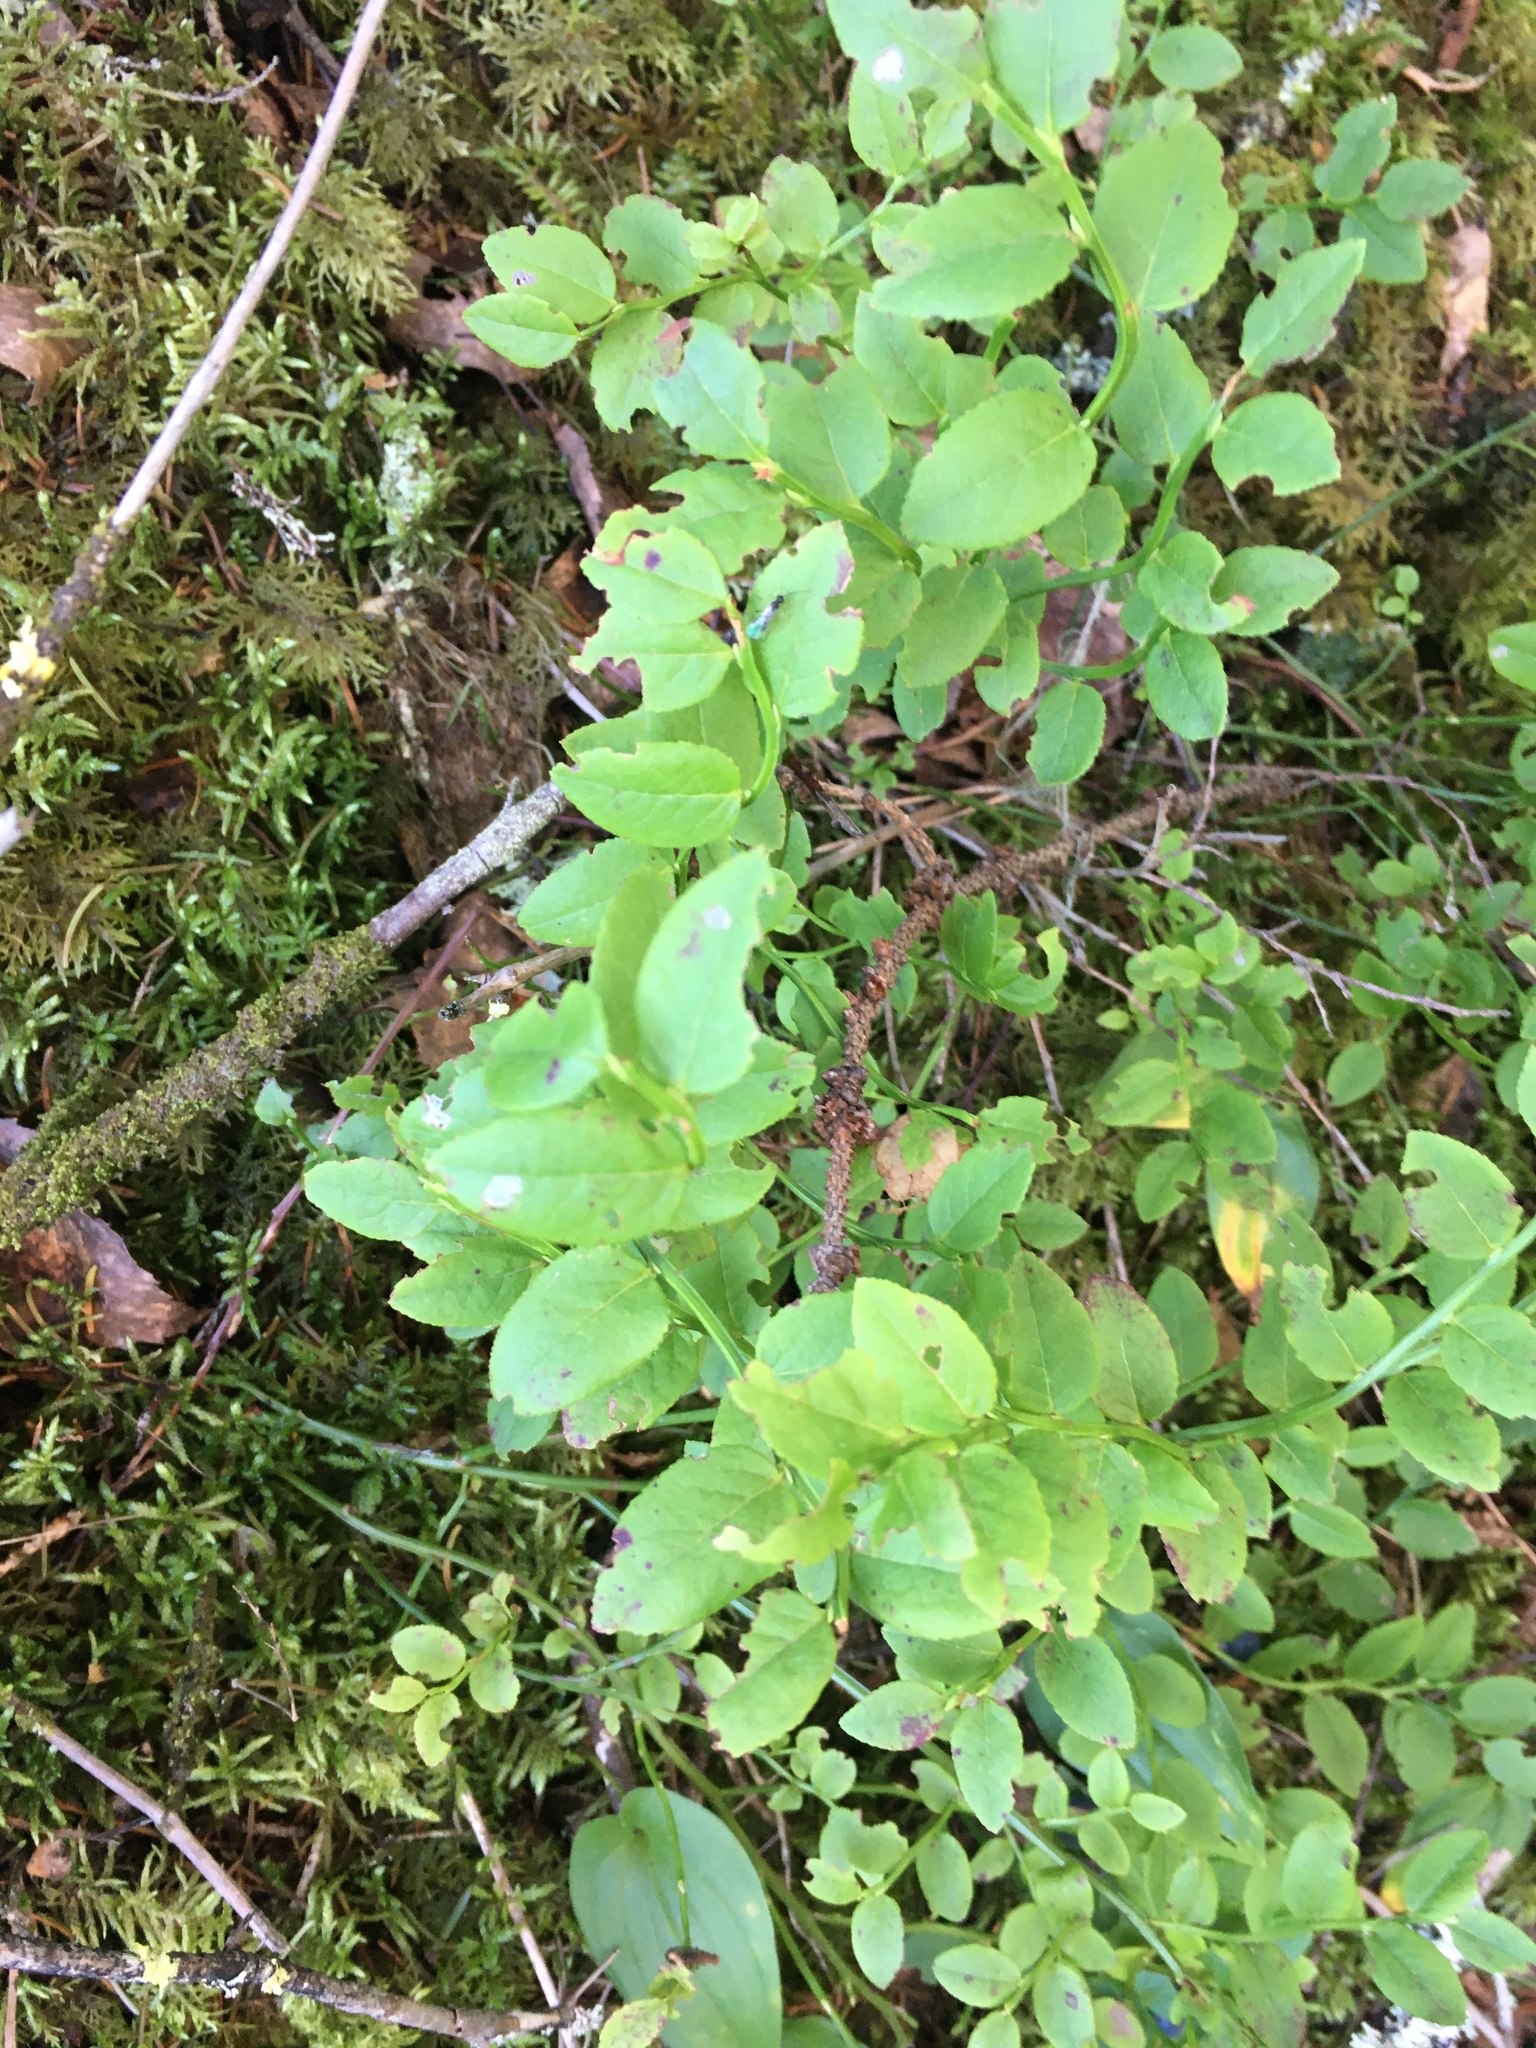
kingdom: Plantae
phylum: Tracheophyta
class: Magnoliopsida
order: Ericales
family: Ericaceae
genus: Vaccinium
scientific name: Vaccinium myrtillus
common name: Bilberry
